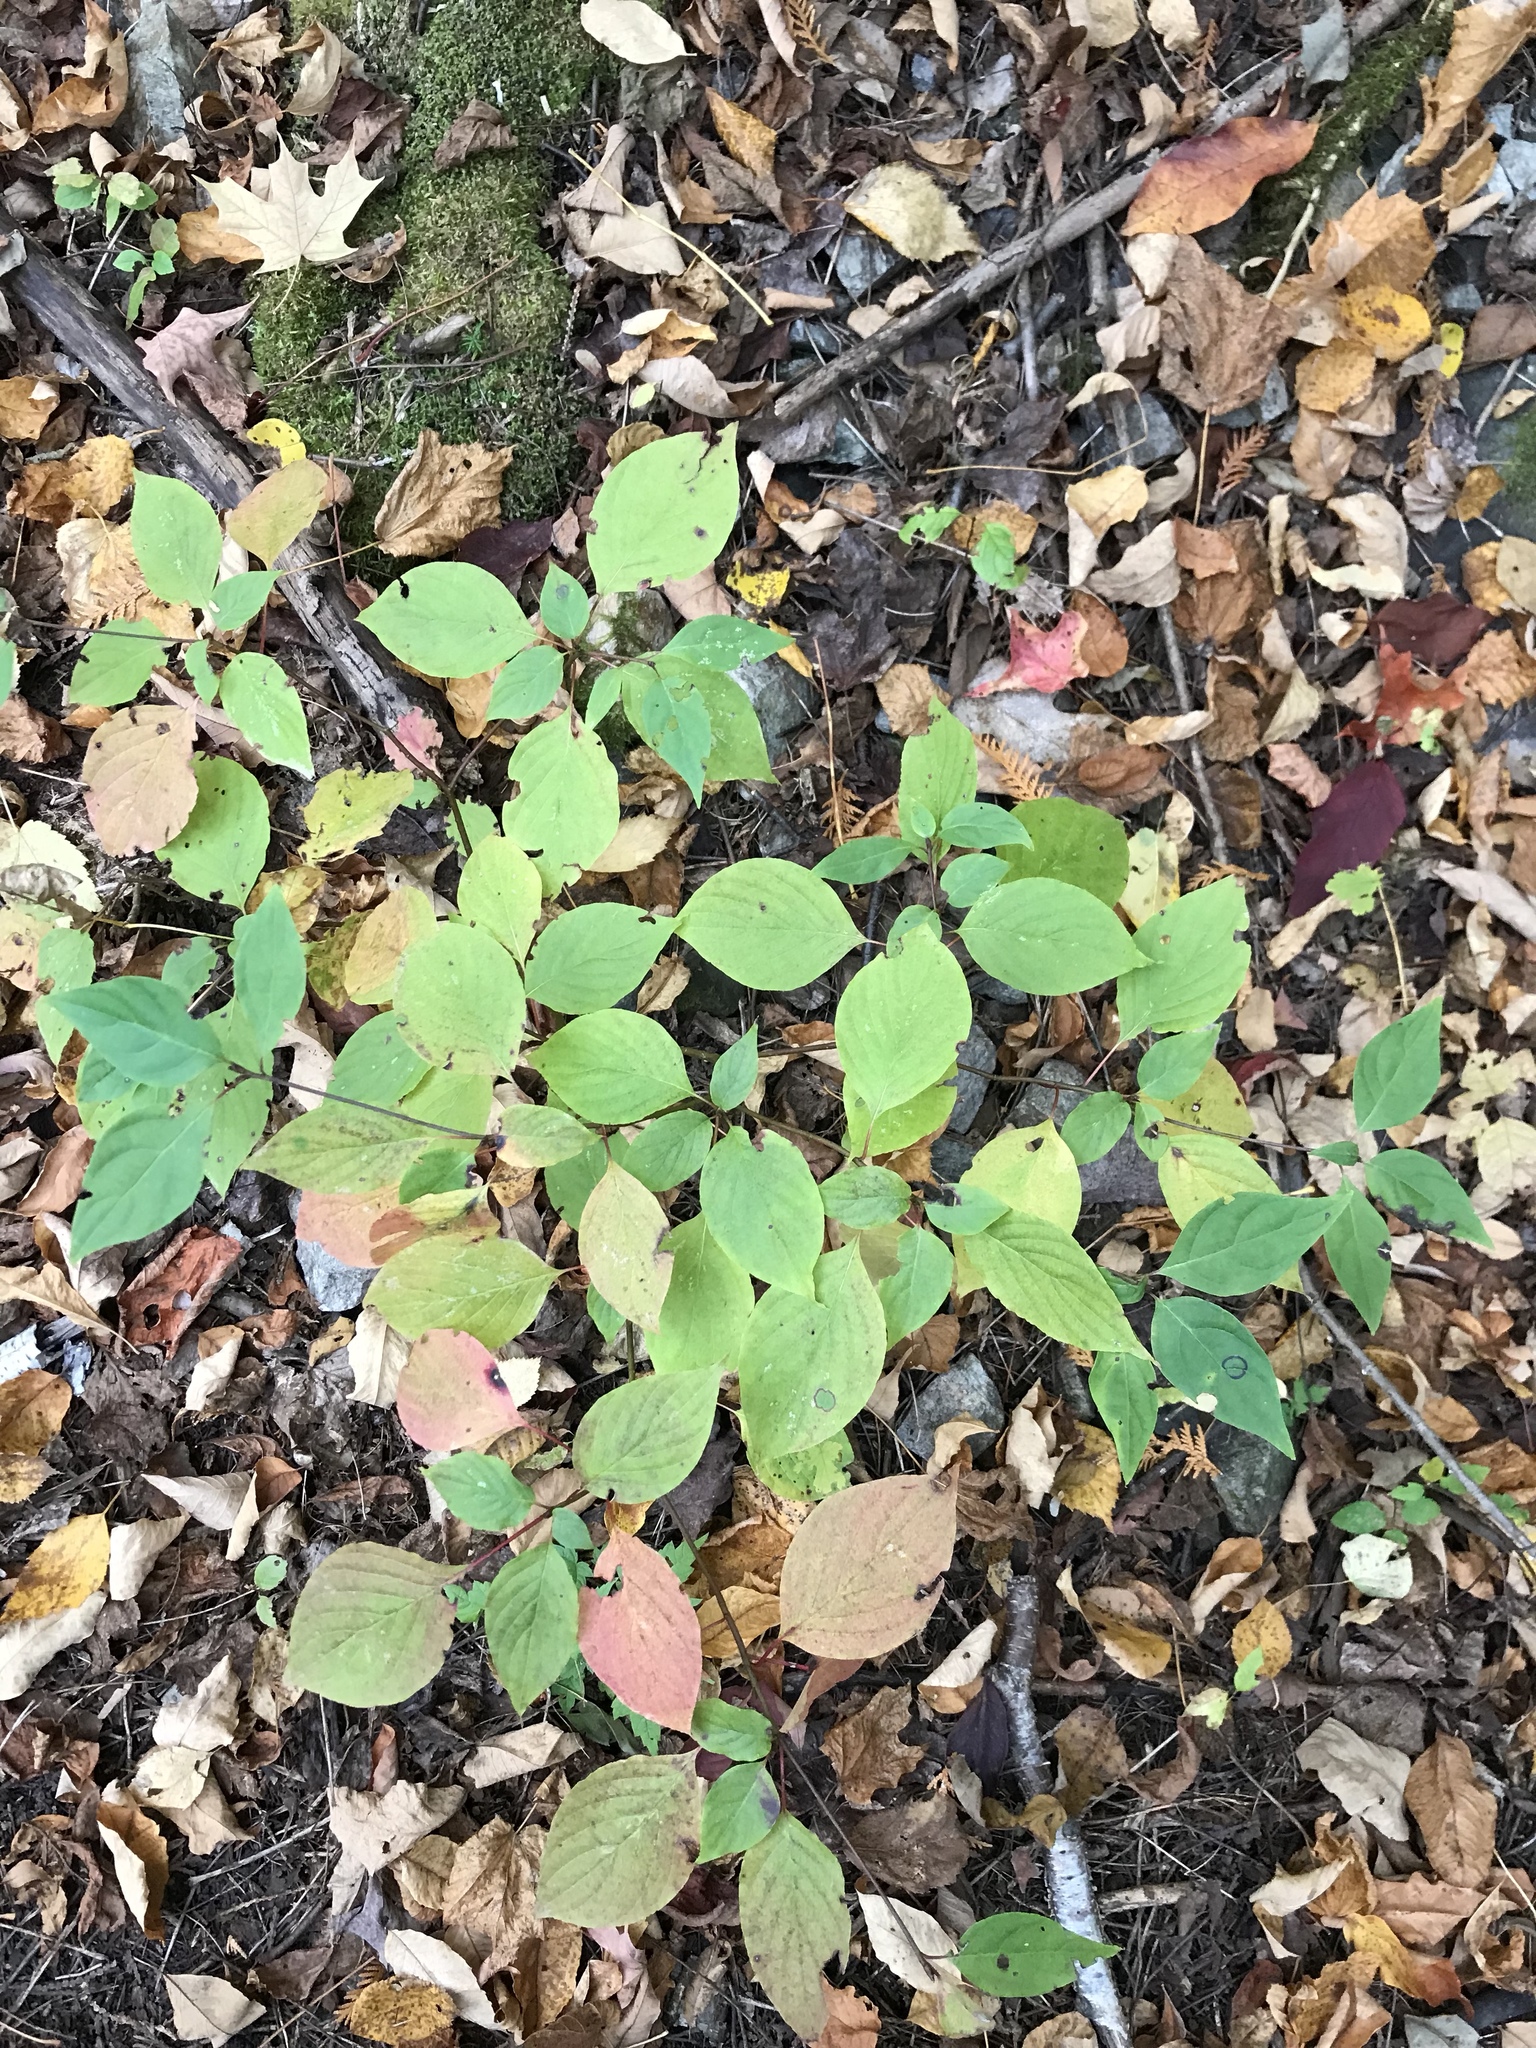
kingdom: Plantae
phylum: Tracheophyta
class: Magnoliopsida
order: Cornales
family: Cornaceae
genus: Cornus
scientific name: Cornus alternifolia
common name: Pagoda dogwood
